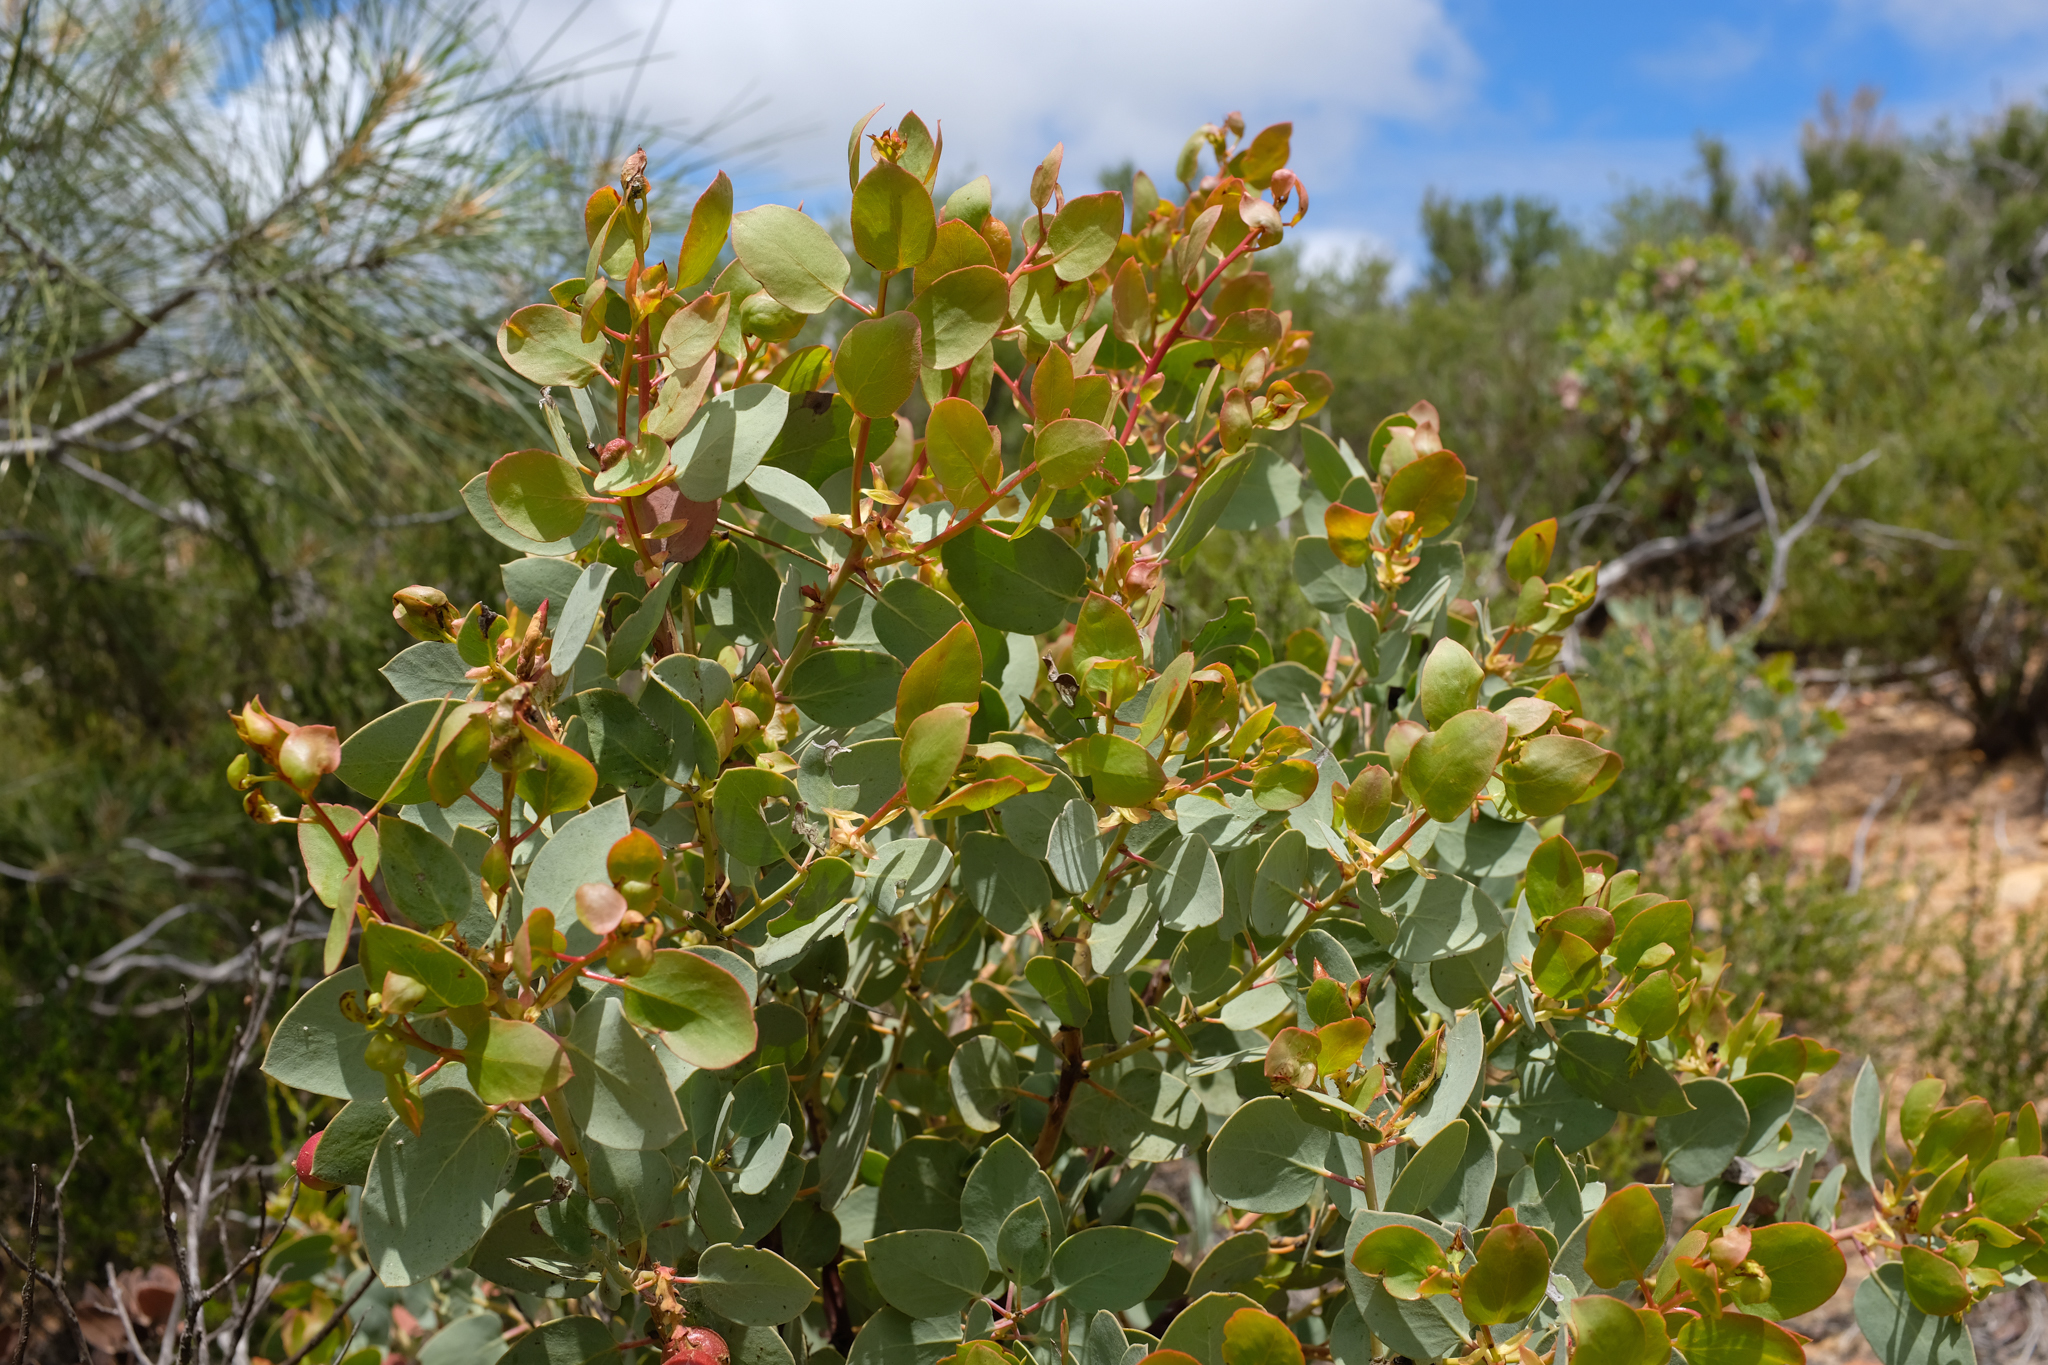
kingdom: Plantae
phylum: Tracheophyta
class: Magnoliopsida
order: Ericales
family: Ericaceae
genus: Arctostaphylos
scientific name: Arctostaphylos glauca
